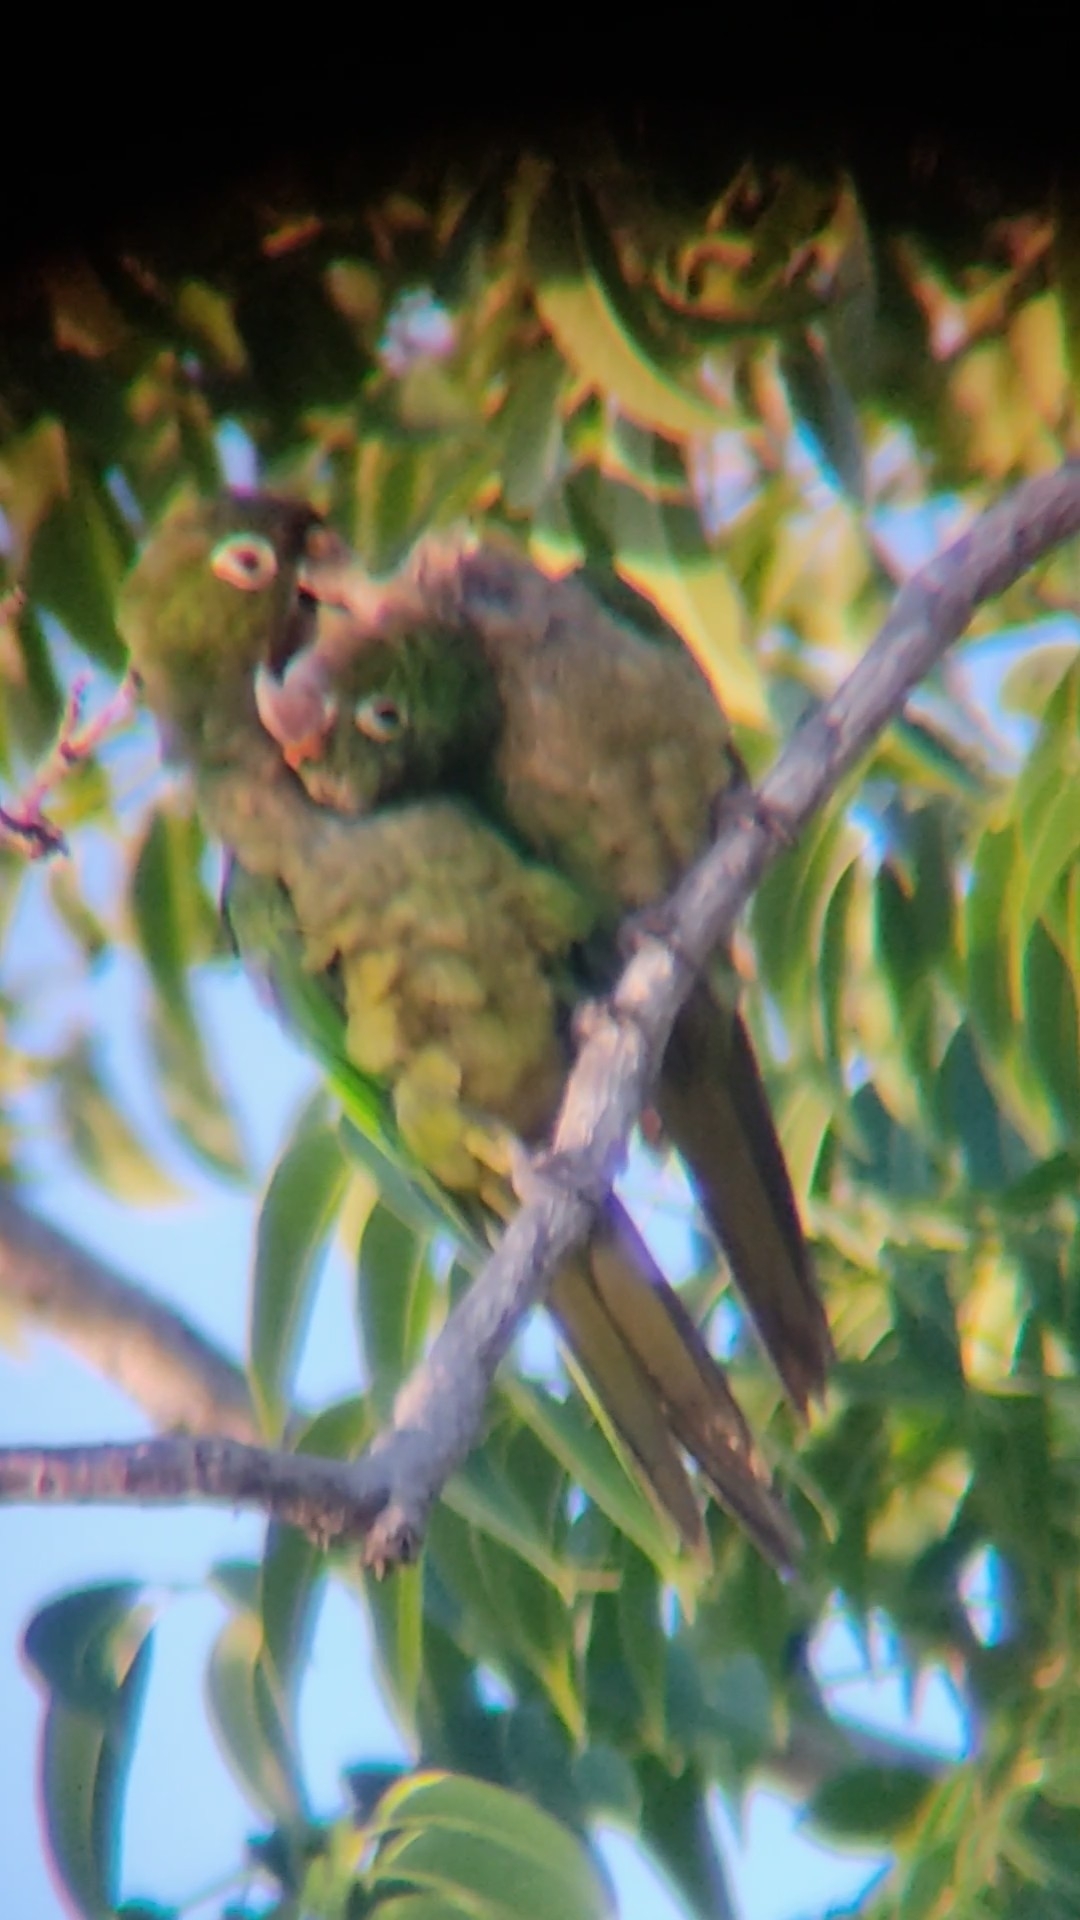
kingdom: Animalia
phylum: Chordata
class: Aves
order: Psittaciformes
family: Psittacidae
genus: Aratinga
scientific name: Aratinga nana
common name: Olive-throated parakeet
